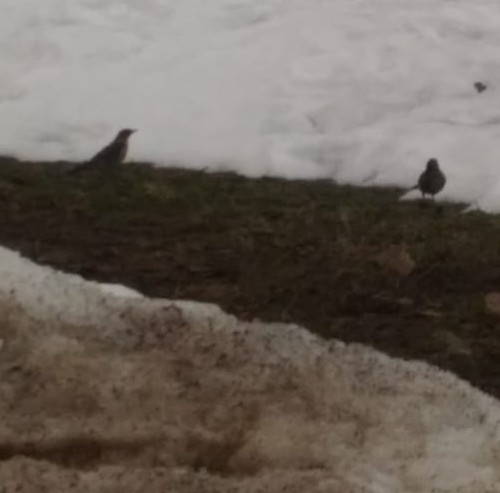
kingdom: Animalia
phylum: Chordata
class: Aves
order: Passeriformes
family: Turdidae
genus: Turdus
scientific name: Turdus pilaris
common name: Fieldfare
